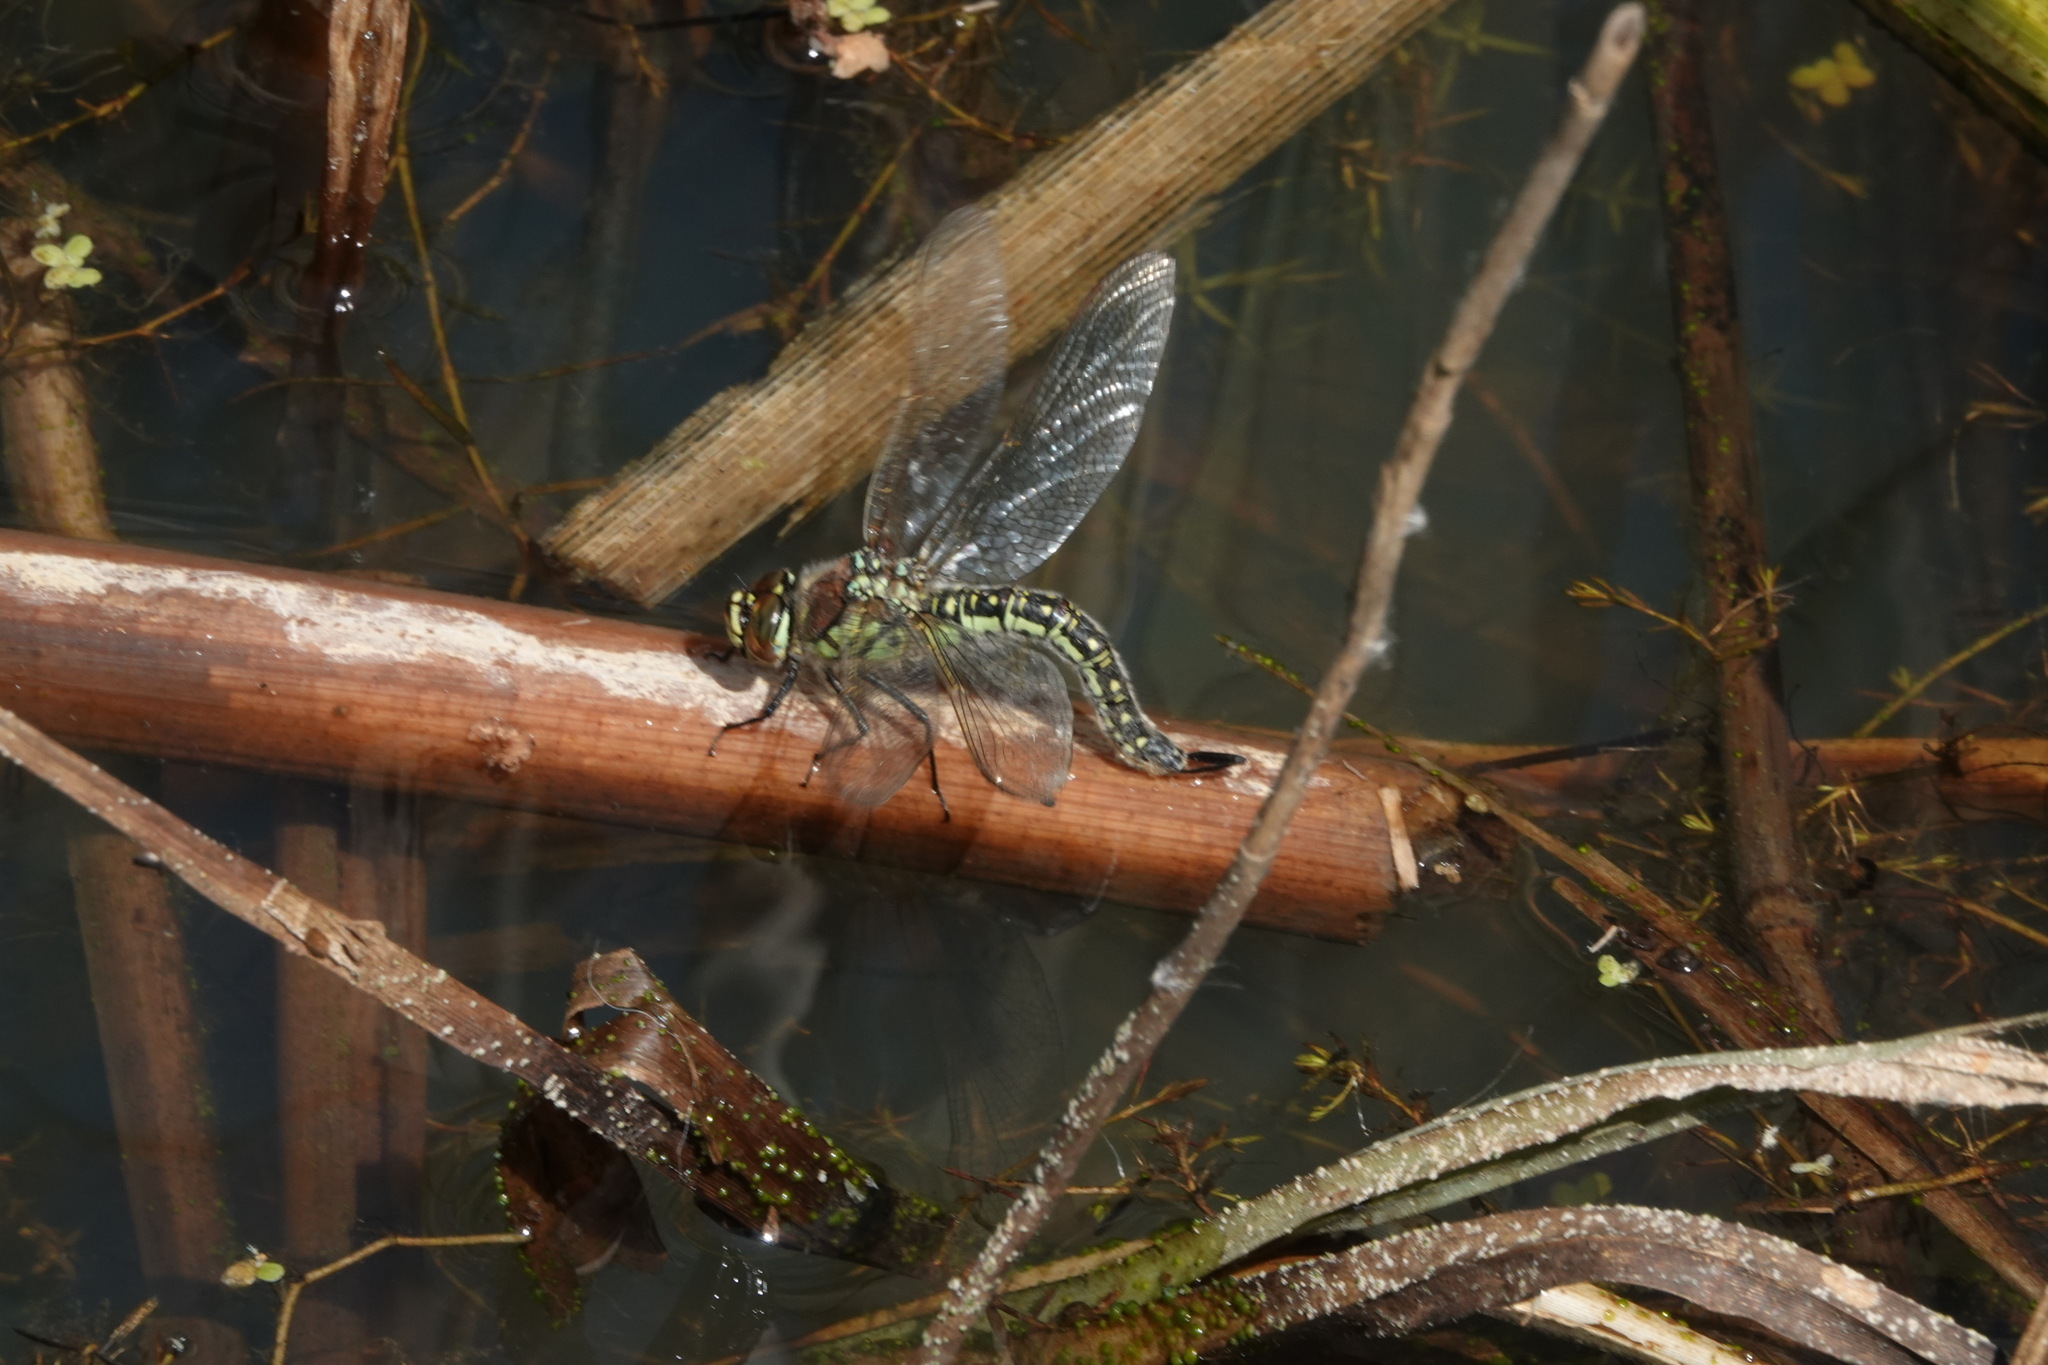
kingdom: Animalia
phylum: Arthropoda
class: Insecta
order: Odonata
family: Aeshnidae
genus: Brachytron
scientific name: Brachytron pratense
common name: Hairy hawker
